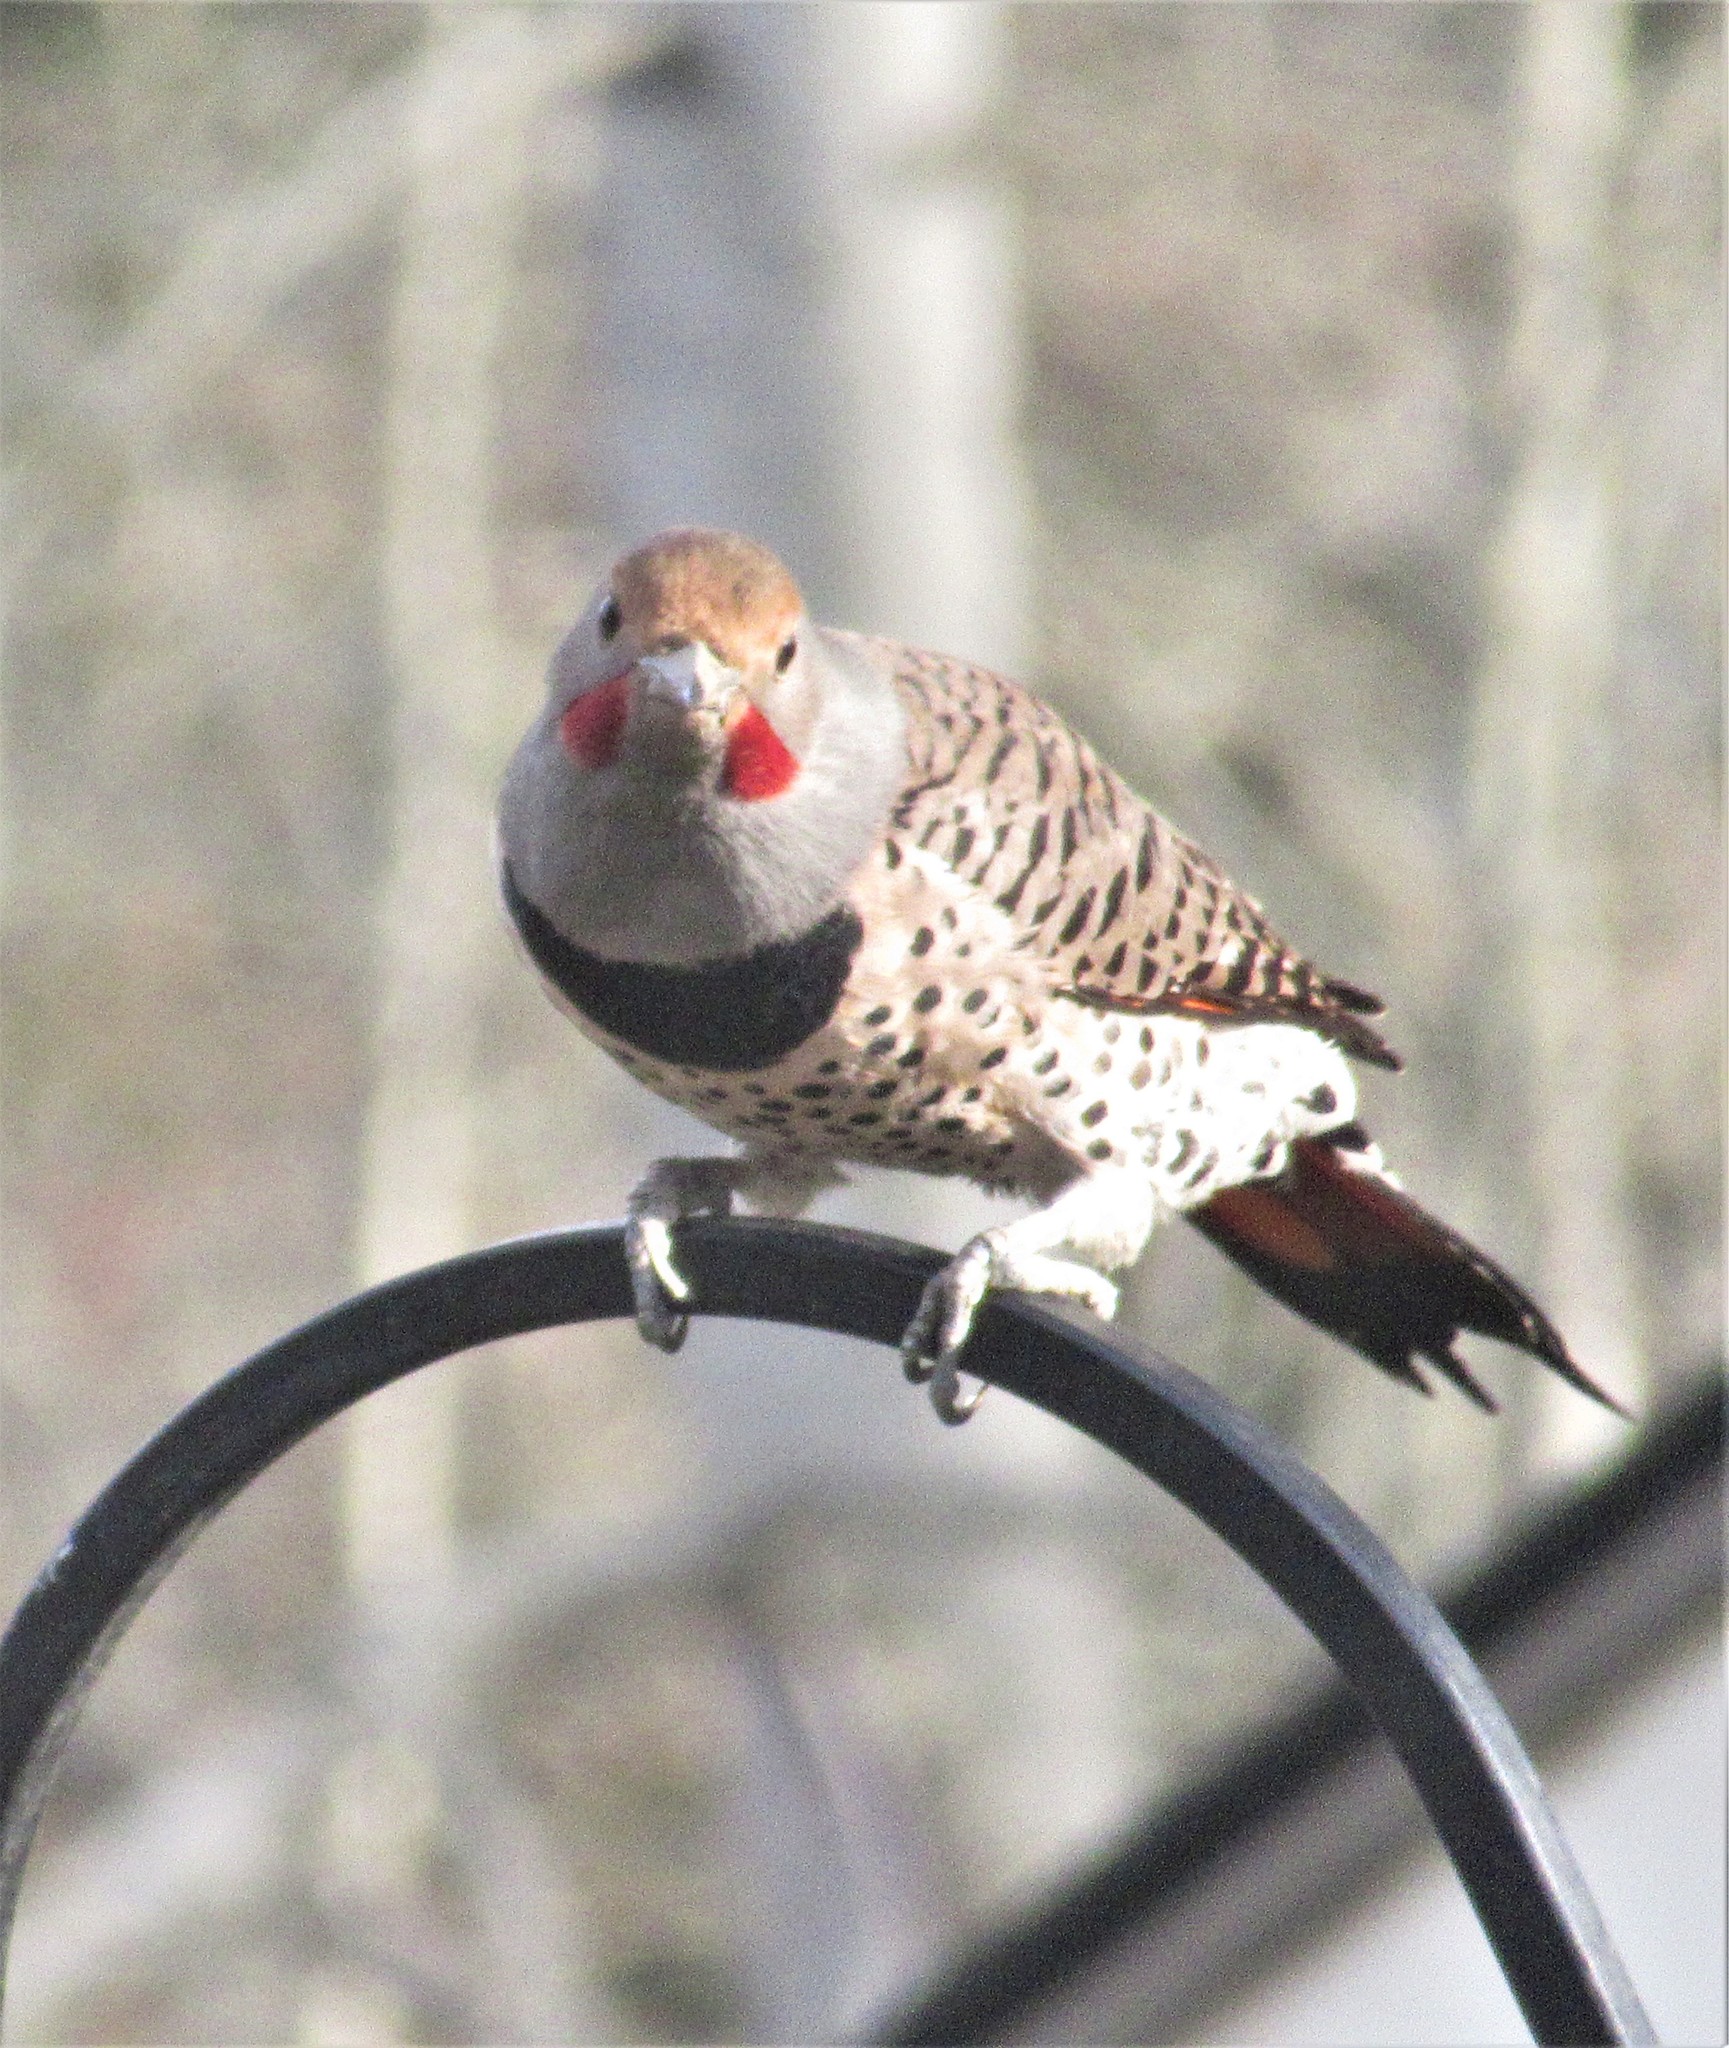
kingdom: Animalia
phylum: Chordata
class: Aves
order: Piciformes
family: Picidae
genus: Colaptes
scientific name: Colaptes auratus
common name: Northern flicker
